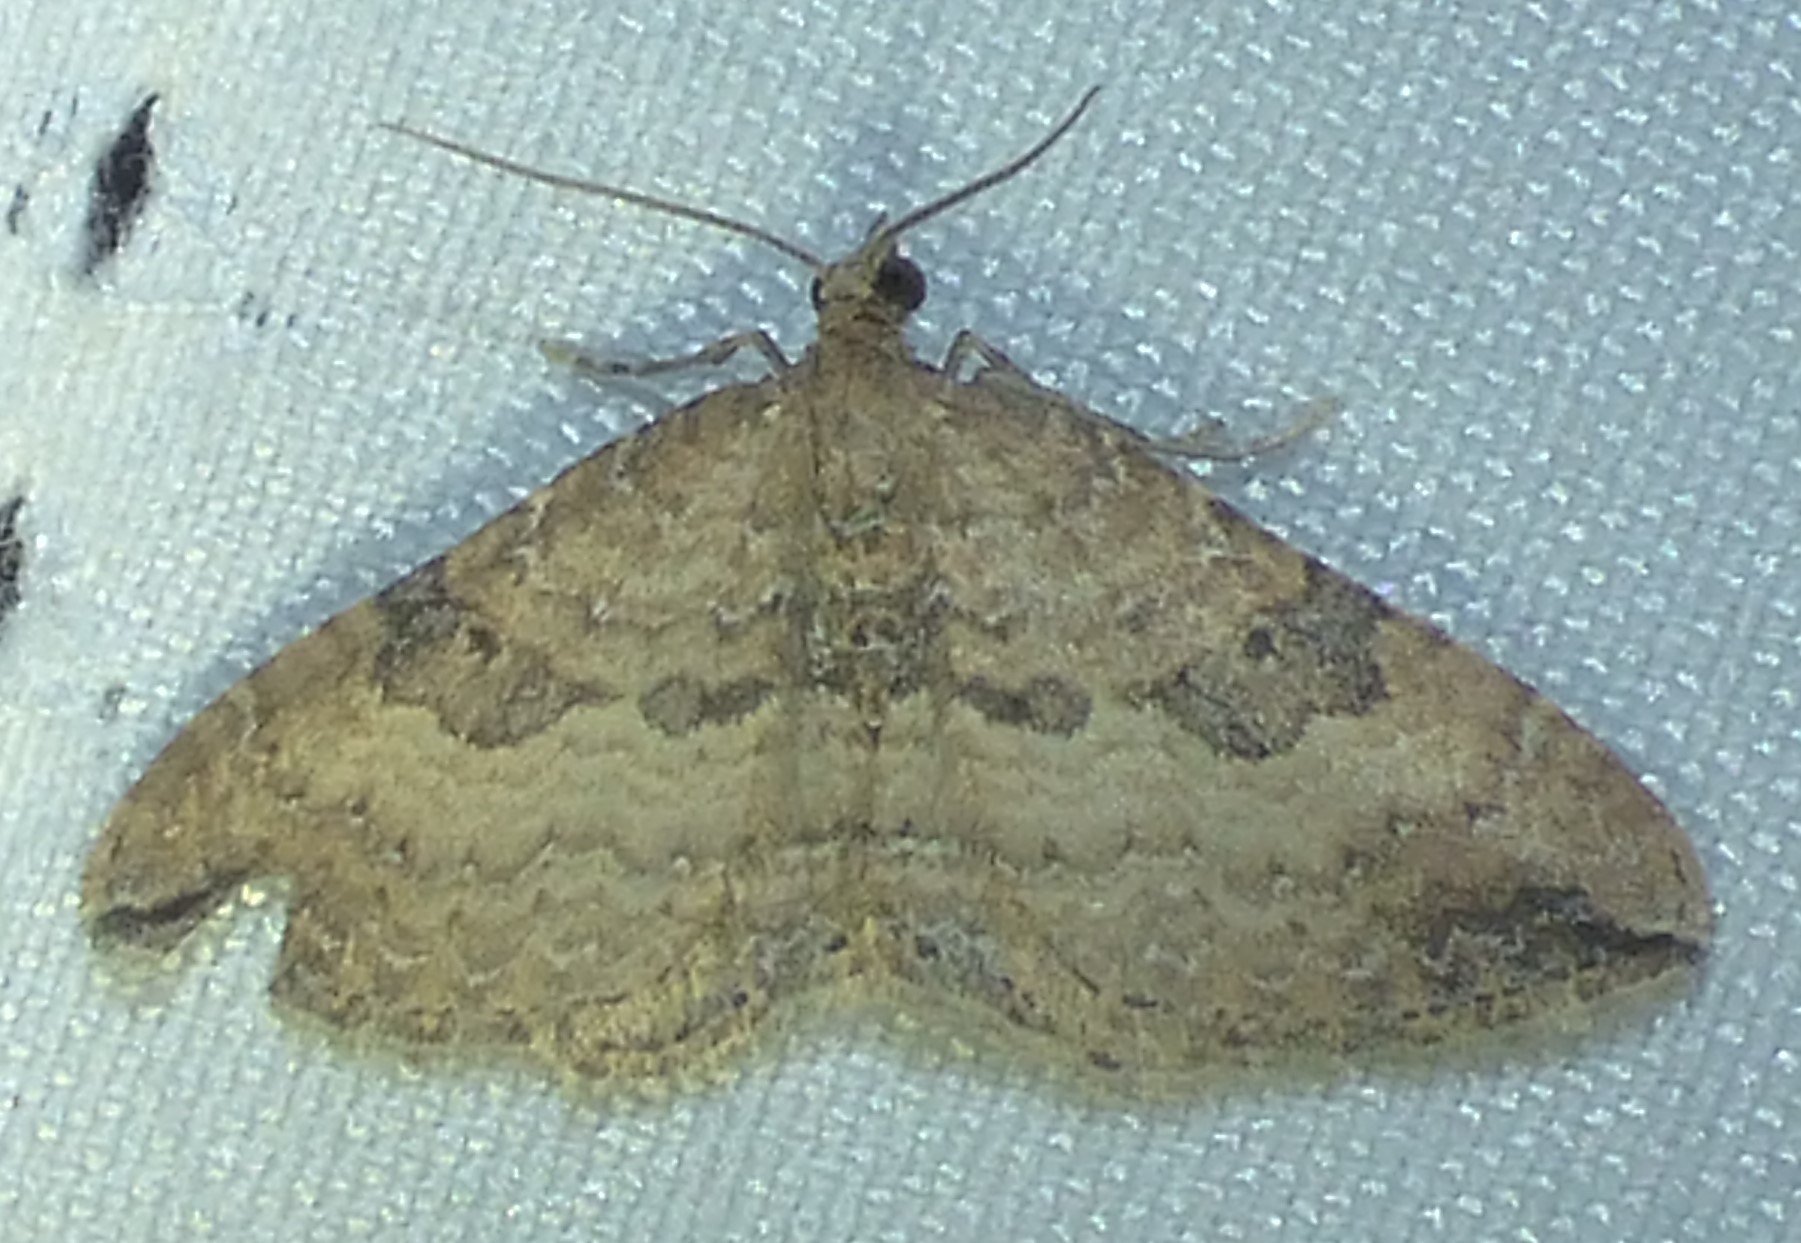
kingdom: Animalia
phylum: Arthropoda
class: Insecta
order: Lepidoptera
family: Geometridae
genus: Orthonama
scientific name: Orthonama obstipata
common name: The gem
